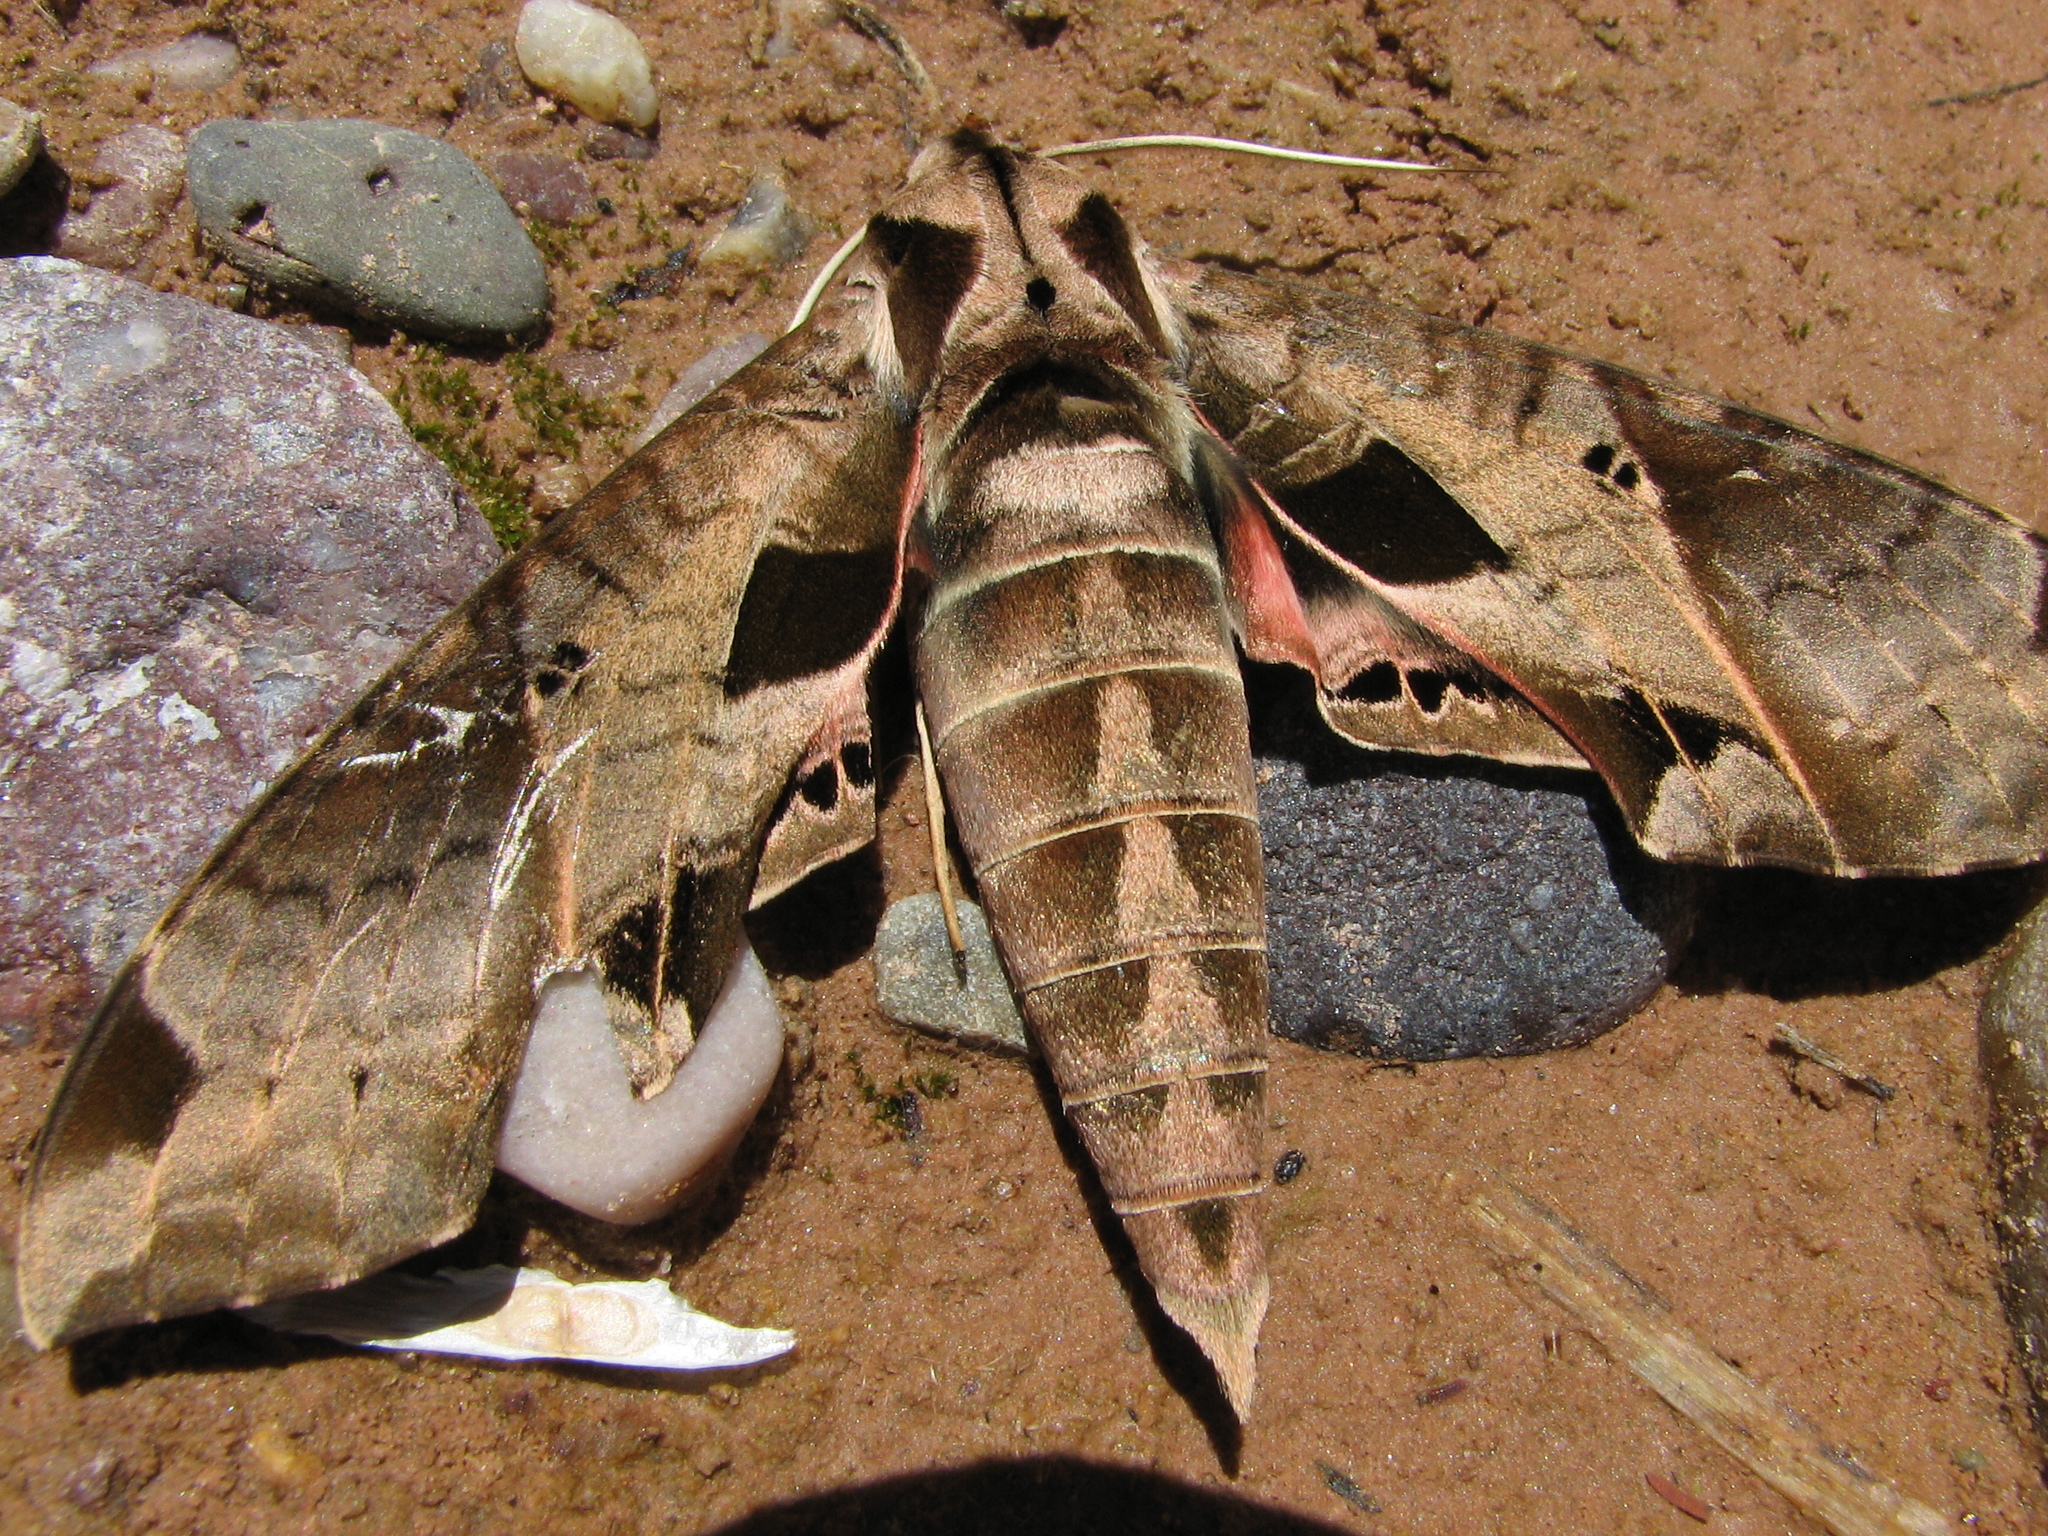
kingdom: Animalia
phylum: Arthropoda
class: Insecta
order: Lepidoptera
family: Sphingidae
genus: Eumorpha
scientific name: Eumorpha analis
